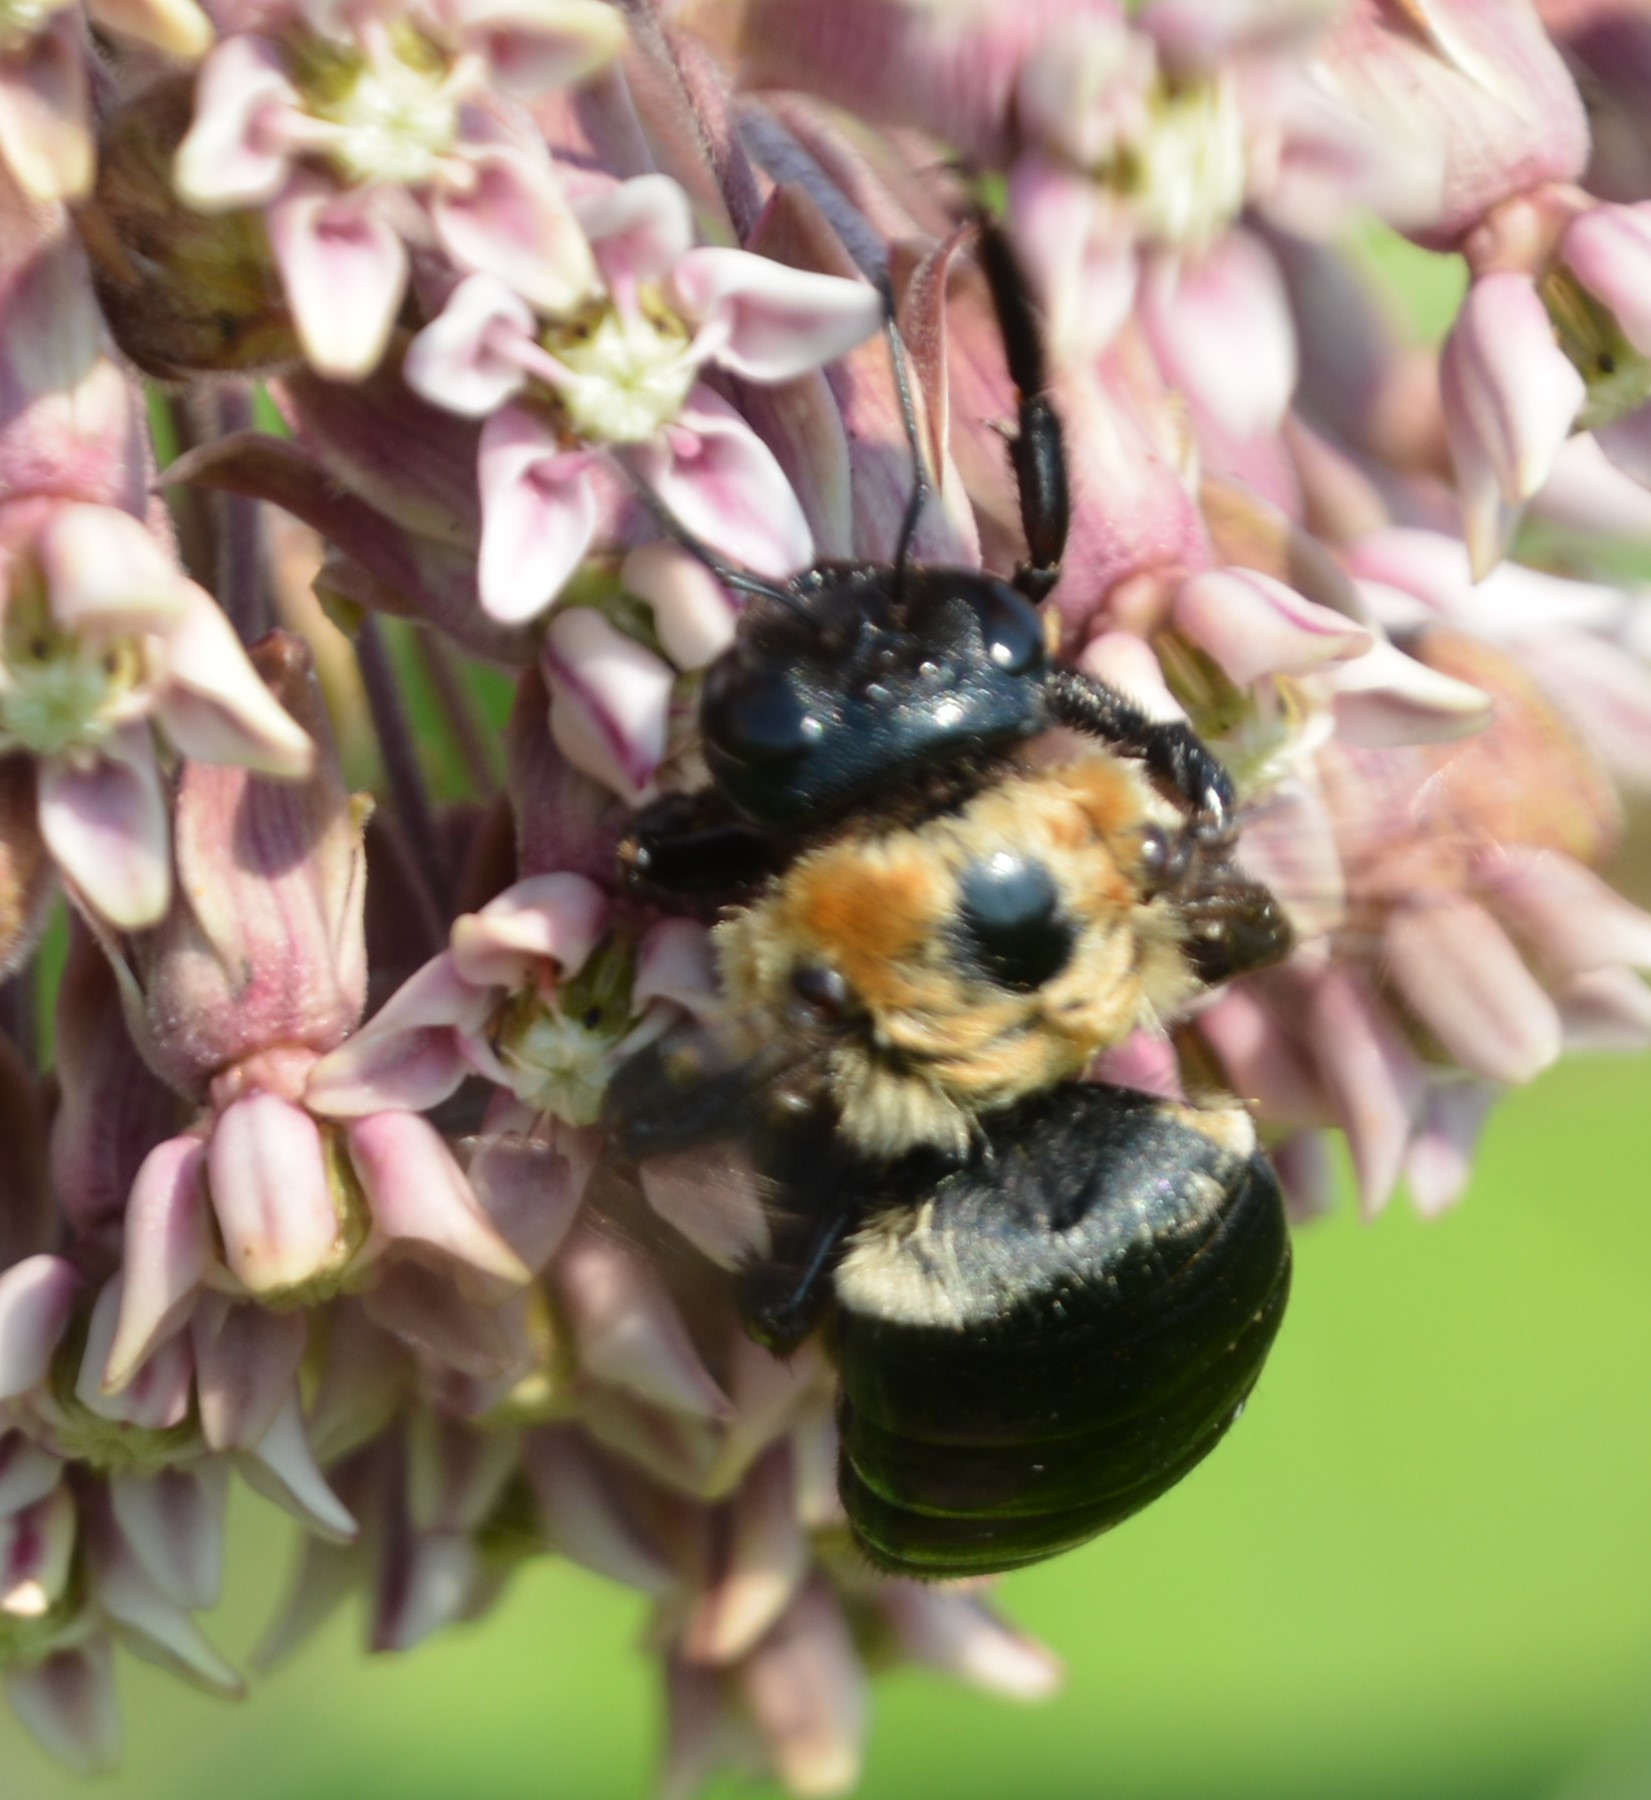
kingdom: Animalia
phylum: Arthropoda
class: Insecta
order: Hymenoptera
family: Apidae
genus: Xylocopa
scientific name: Xylocopa virginica
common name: Carpenter bee
